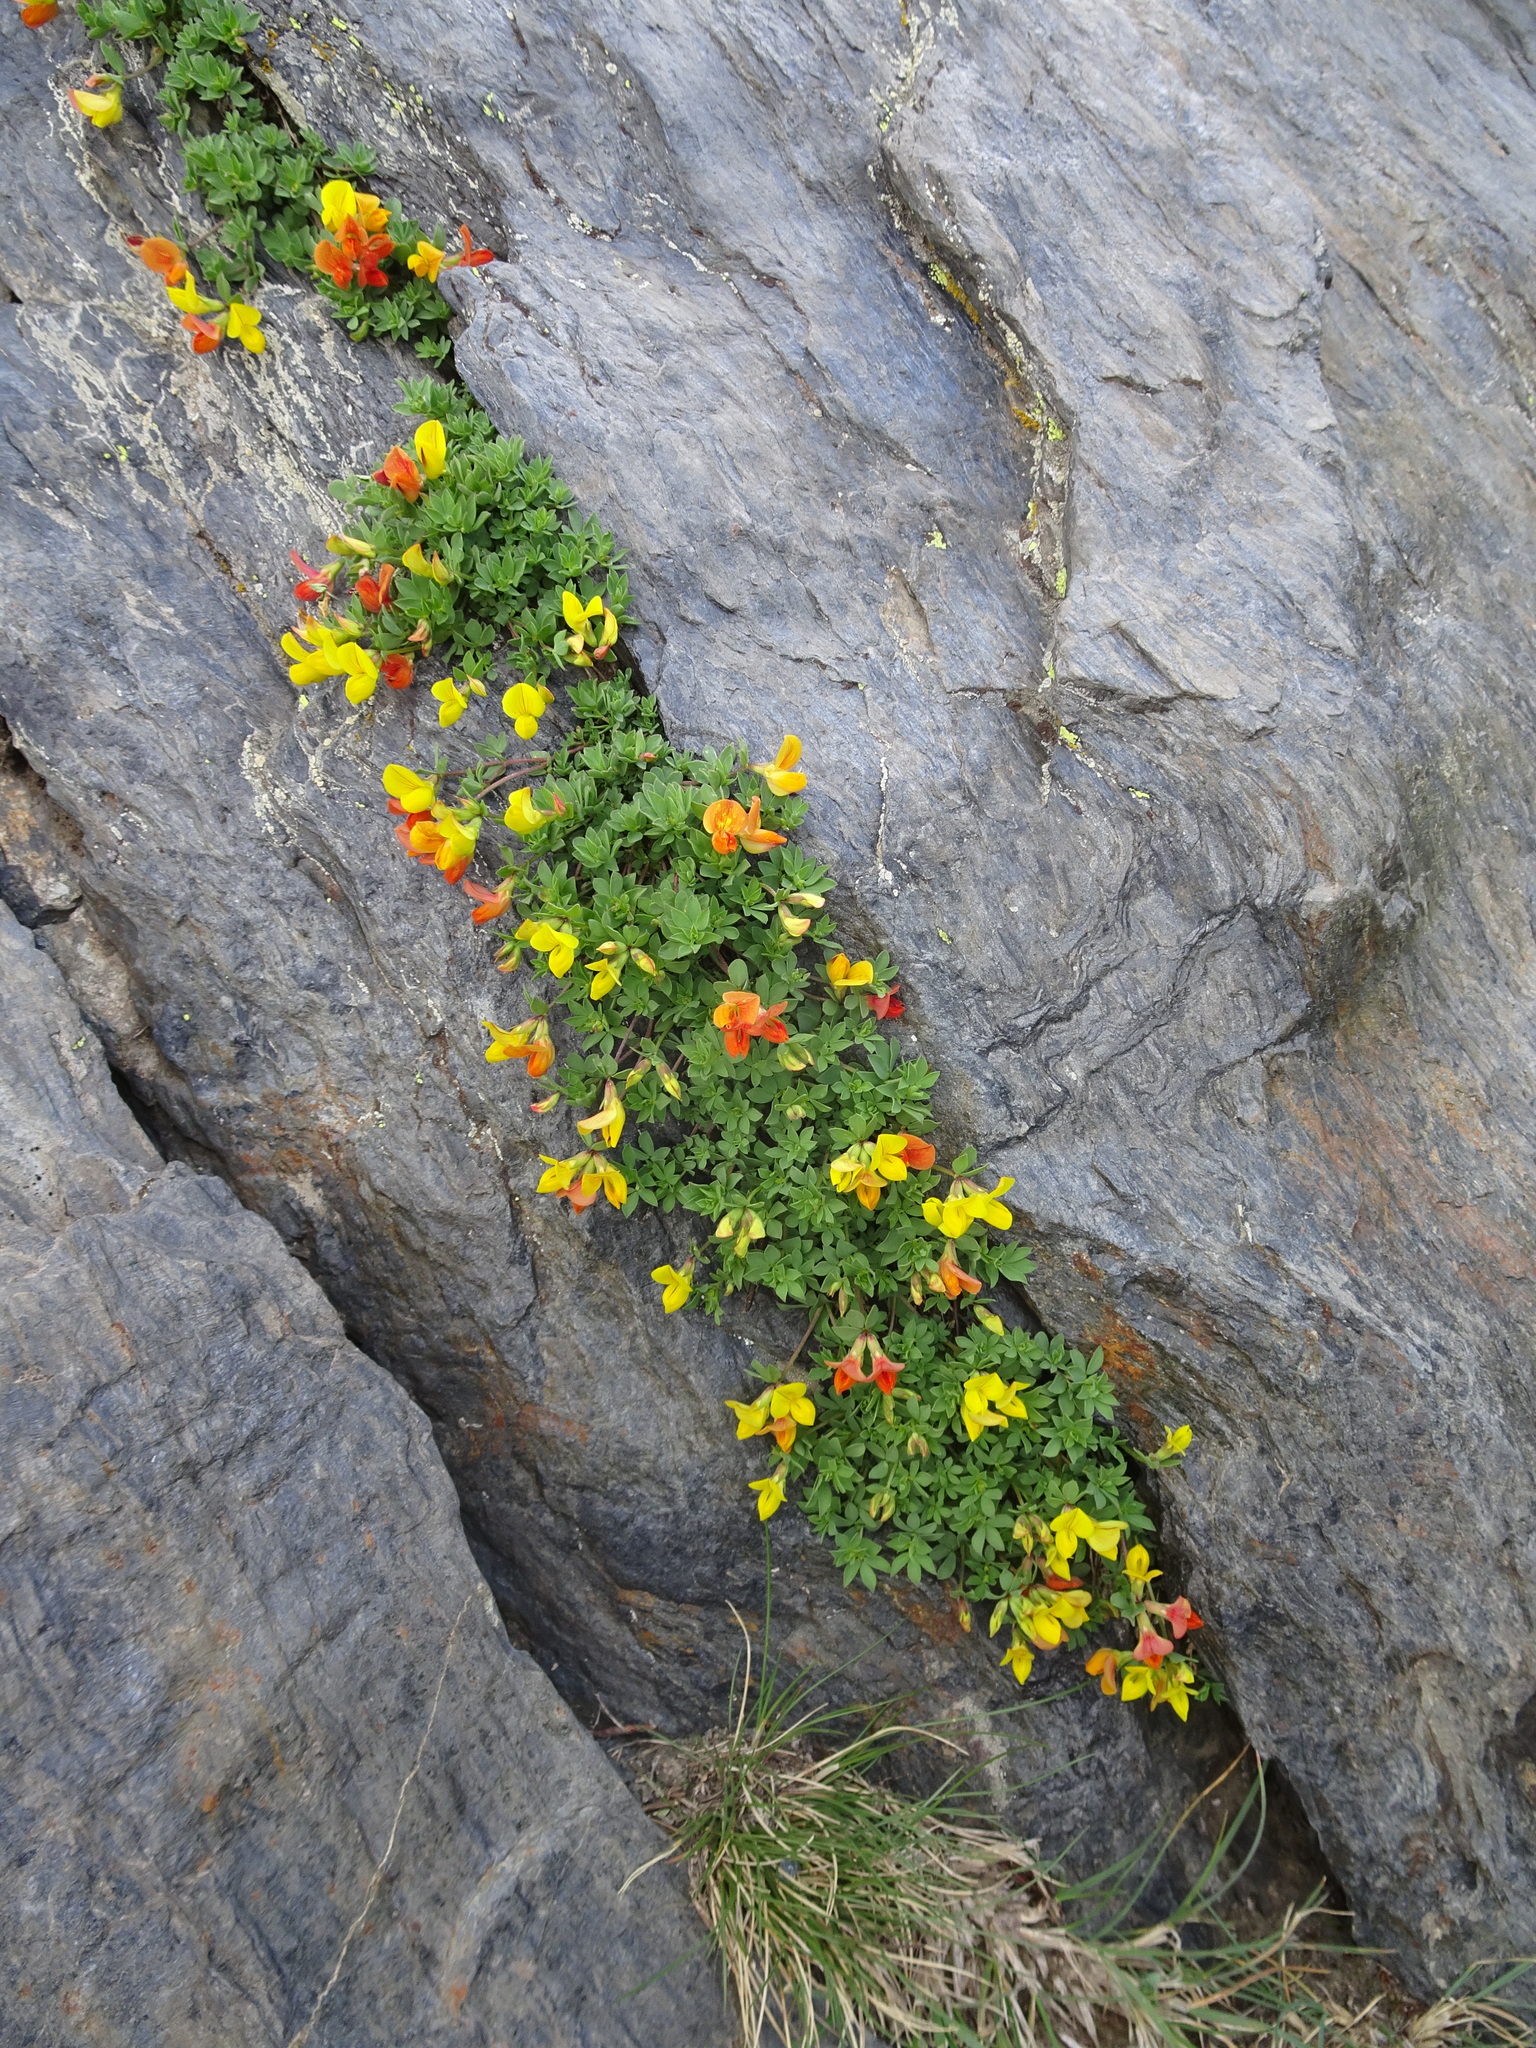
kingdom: Plantae
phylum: Tracheophyta
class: Magnoliopsida
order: Fabales
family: Fabaceae
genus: Lotus
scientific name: Lotus alpinus
